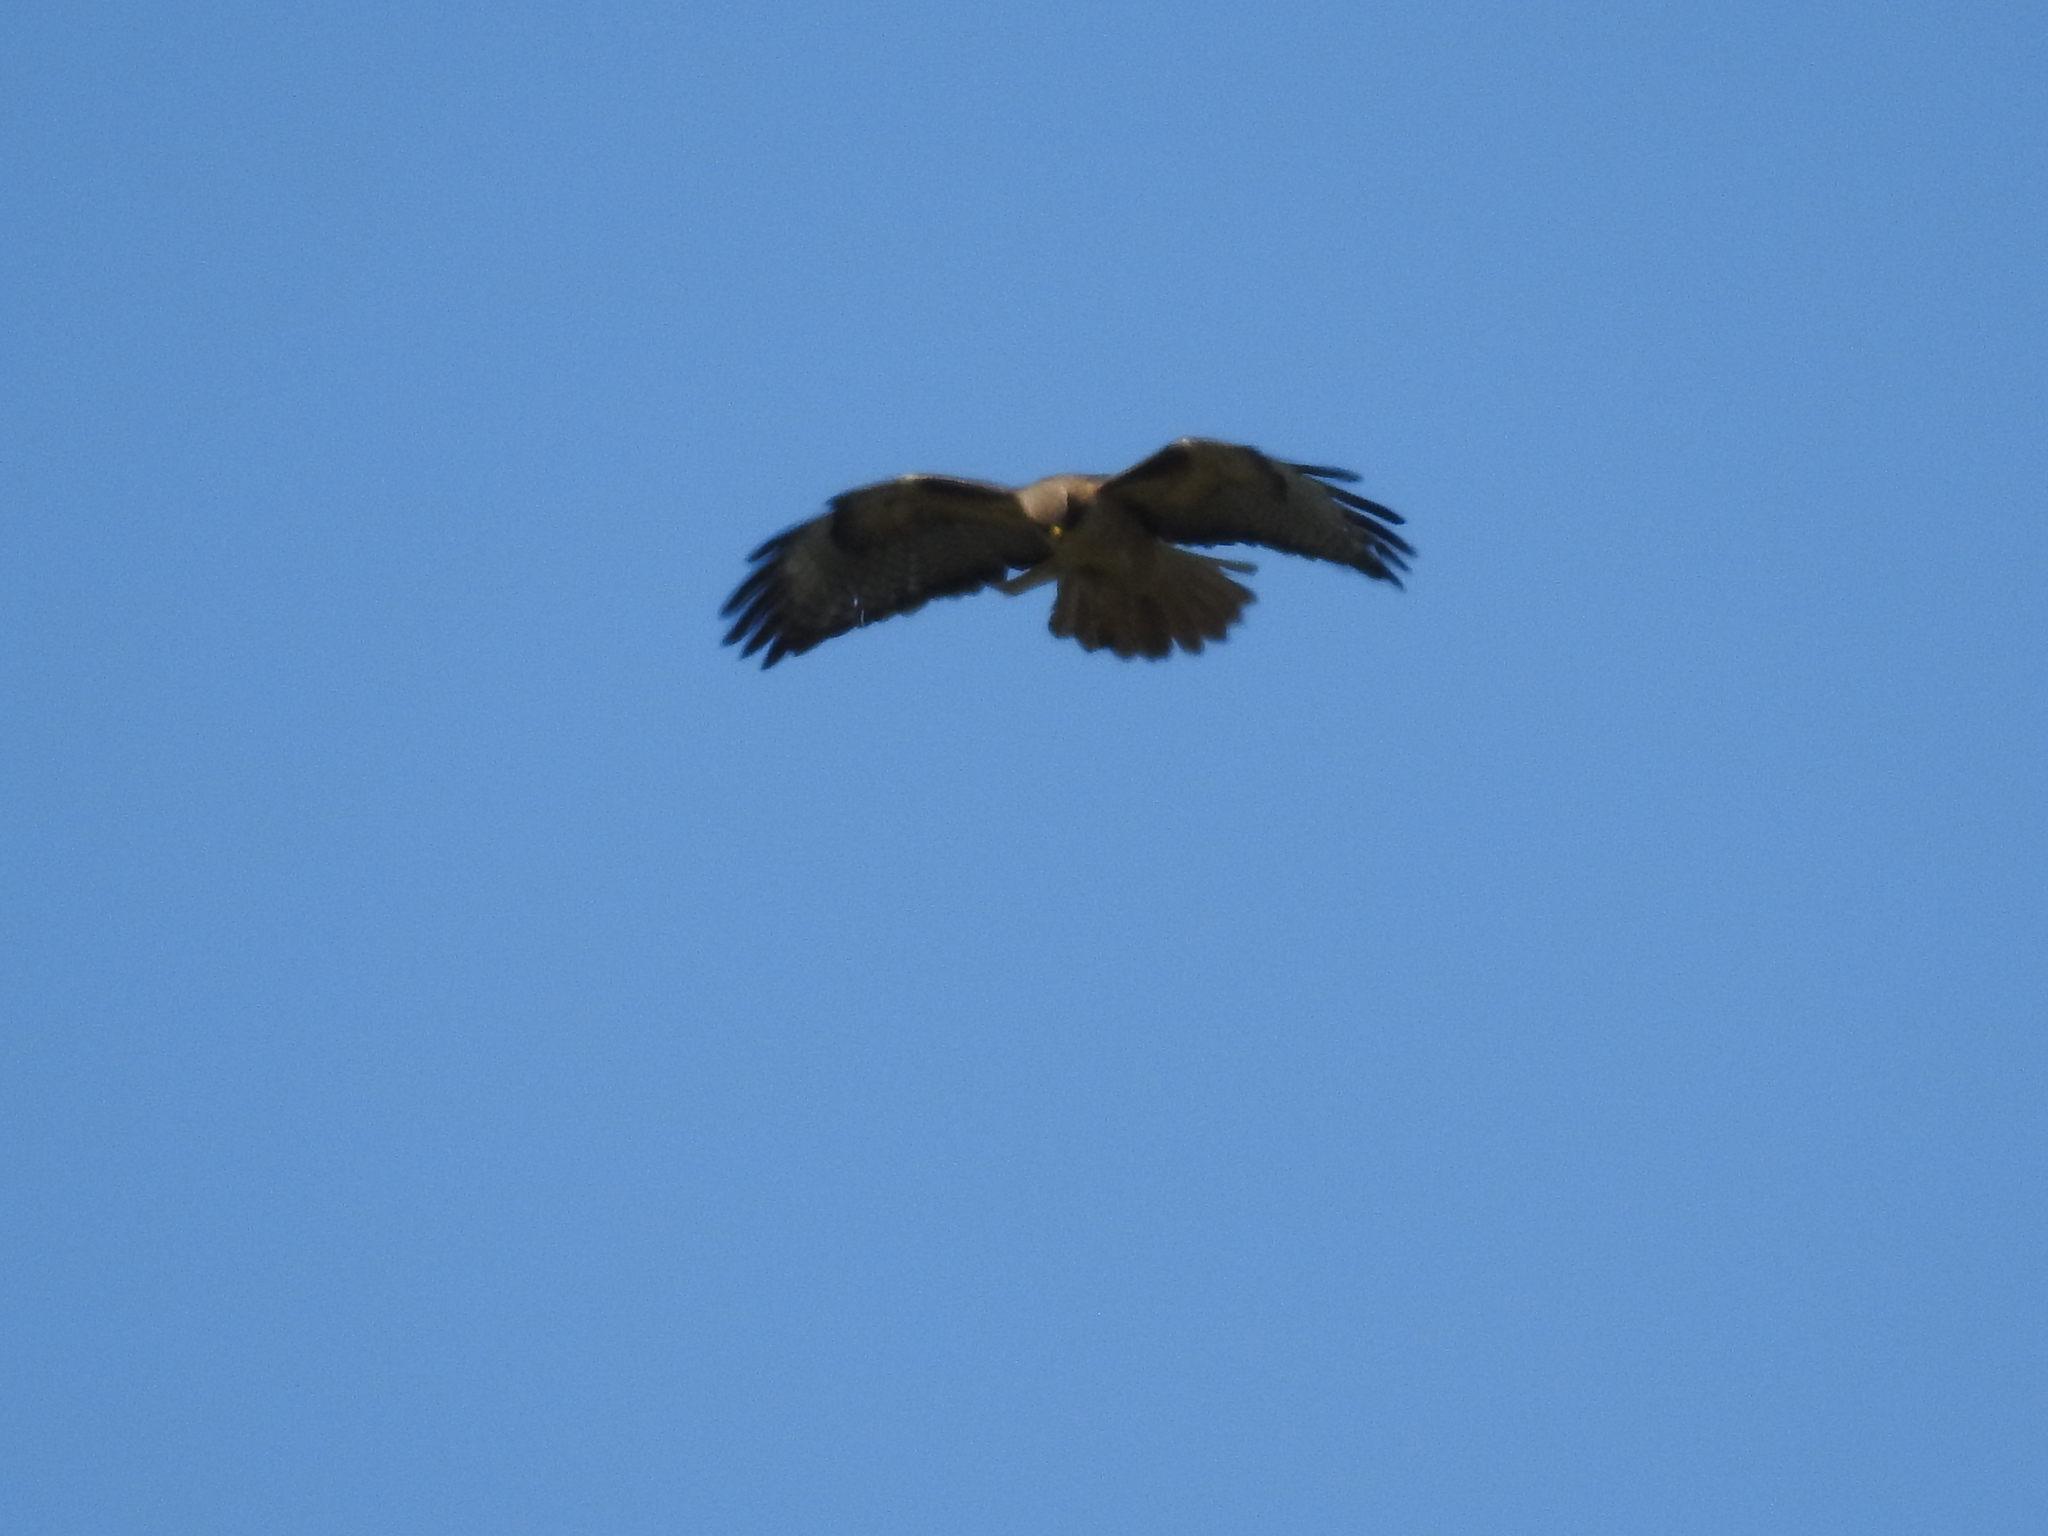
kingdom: Animalia
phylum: Chordata
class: Aves
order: Accipitriformes
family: Accipitridae
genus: Buteo
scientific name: Buteo jamaicensis
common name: Red-tailed hawk
